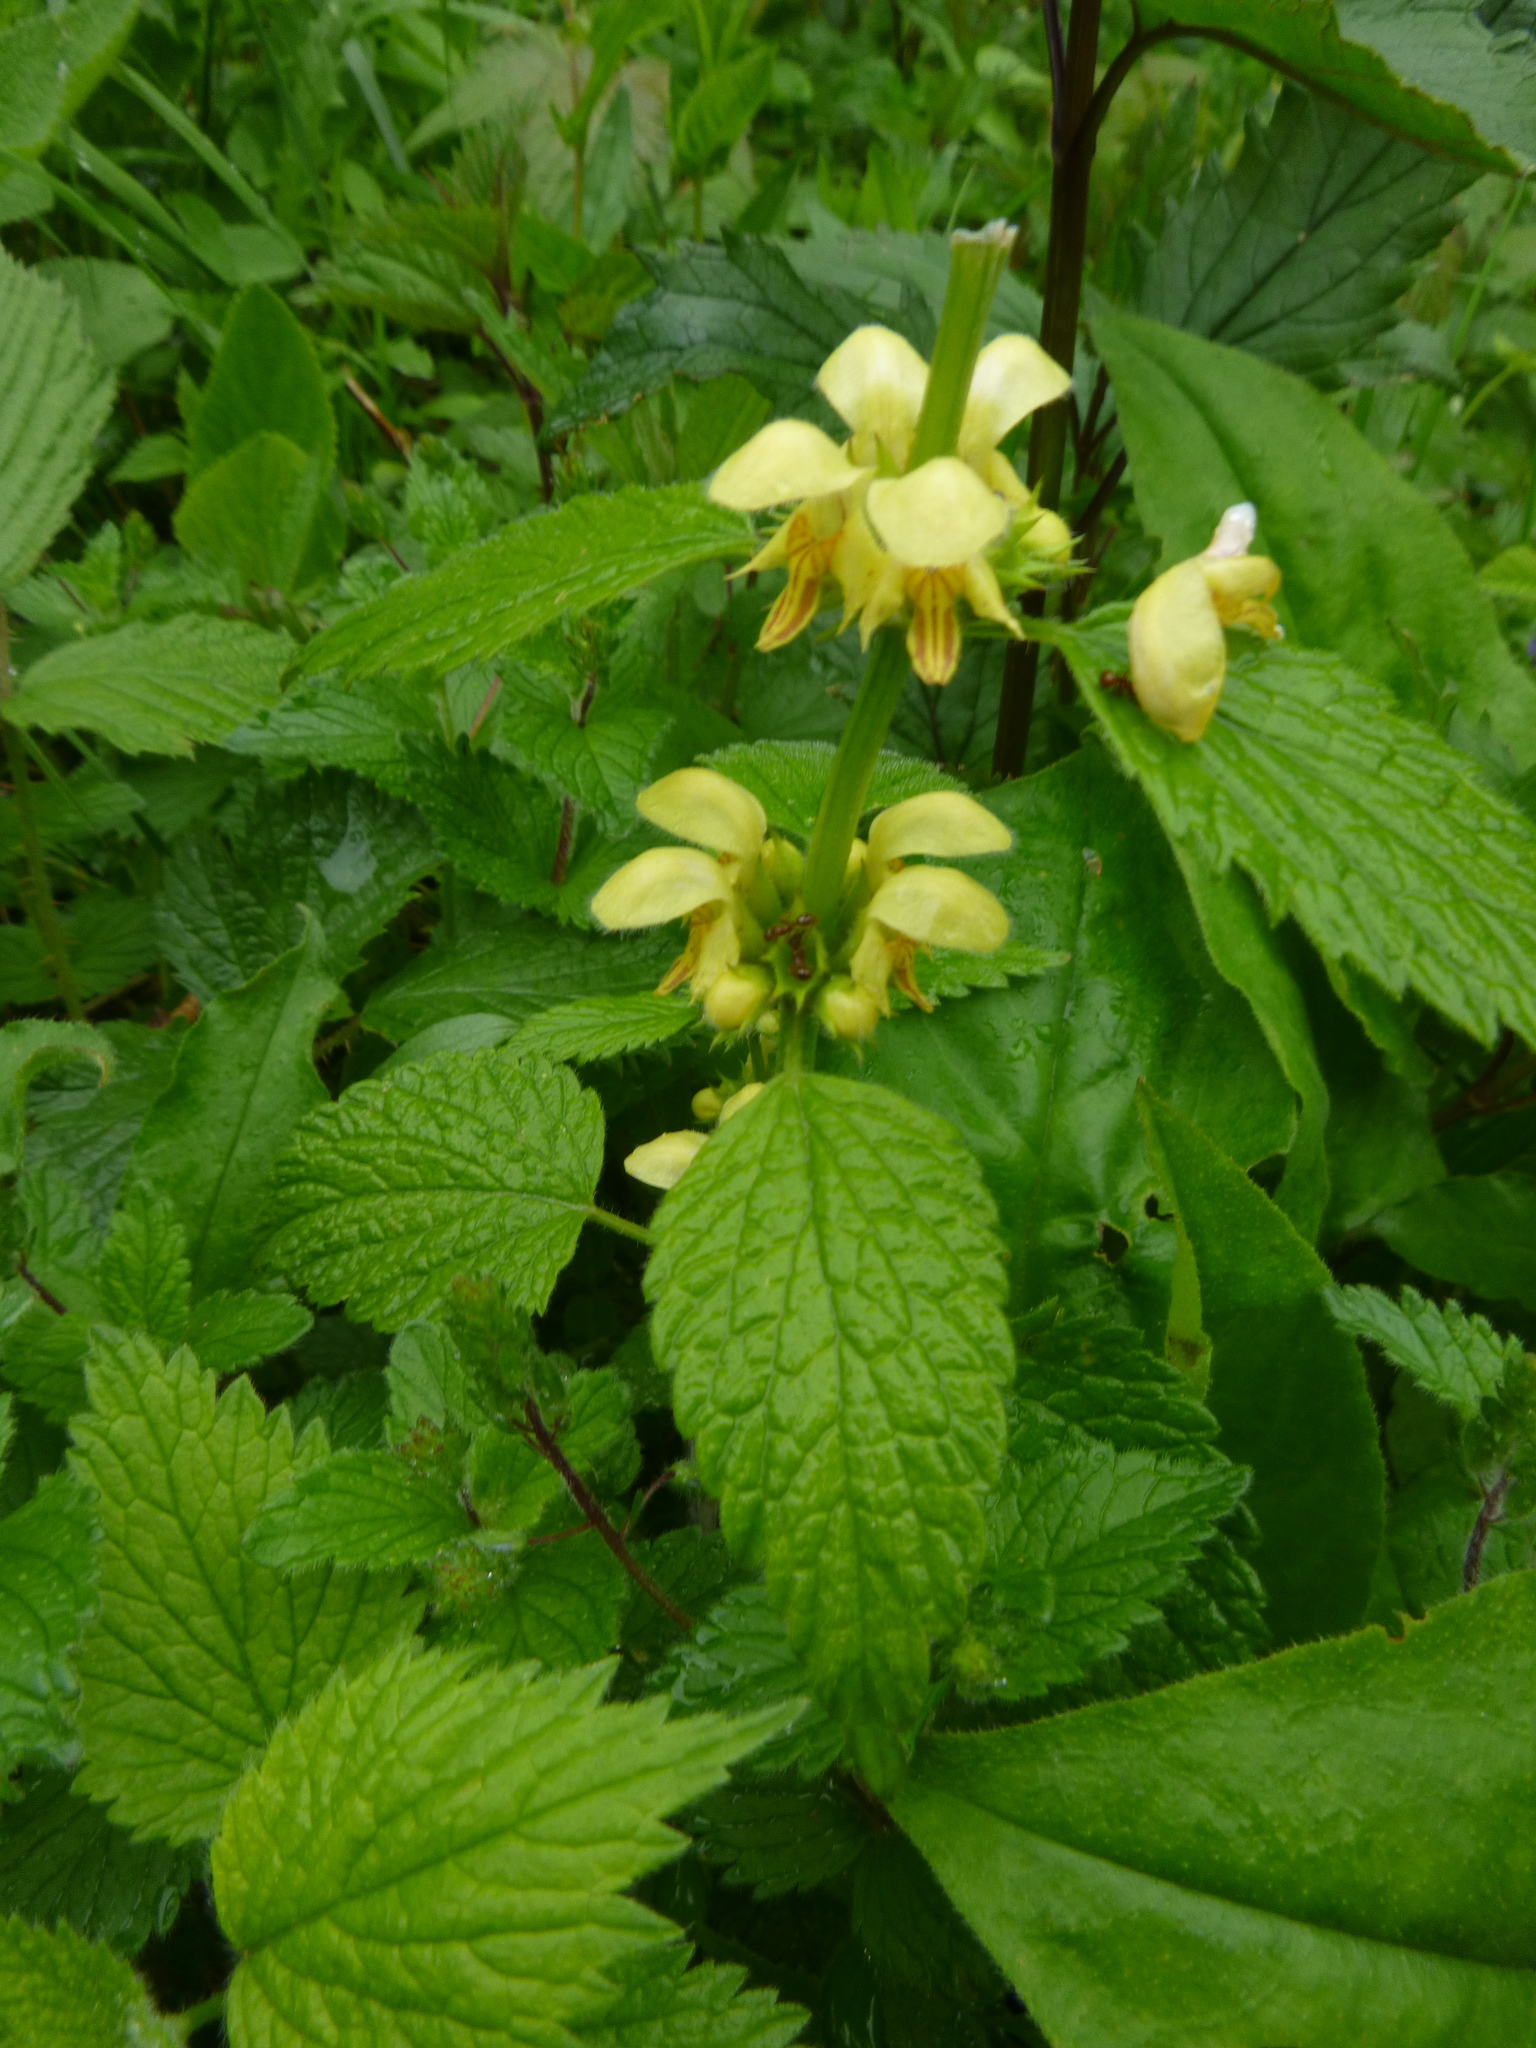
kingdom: Plantae
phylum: Tracheophyta
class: Magnoliopsida
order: Lamiales
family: Lamiaceae
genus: Lamium
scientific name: Lamium galeobdolon
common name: Yellow archangel
